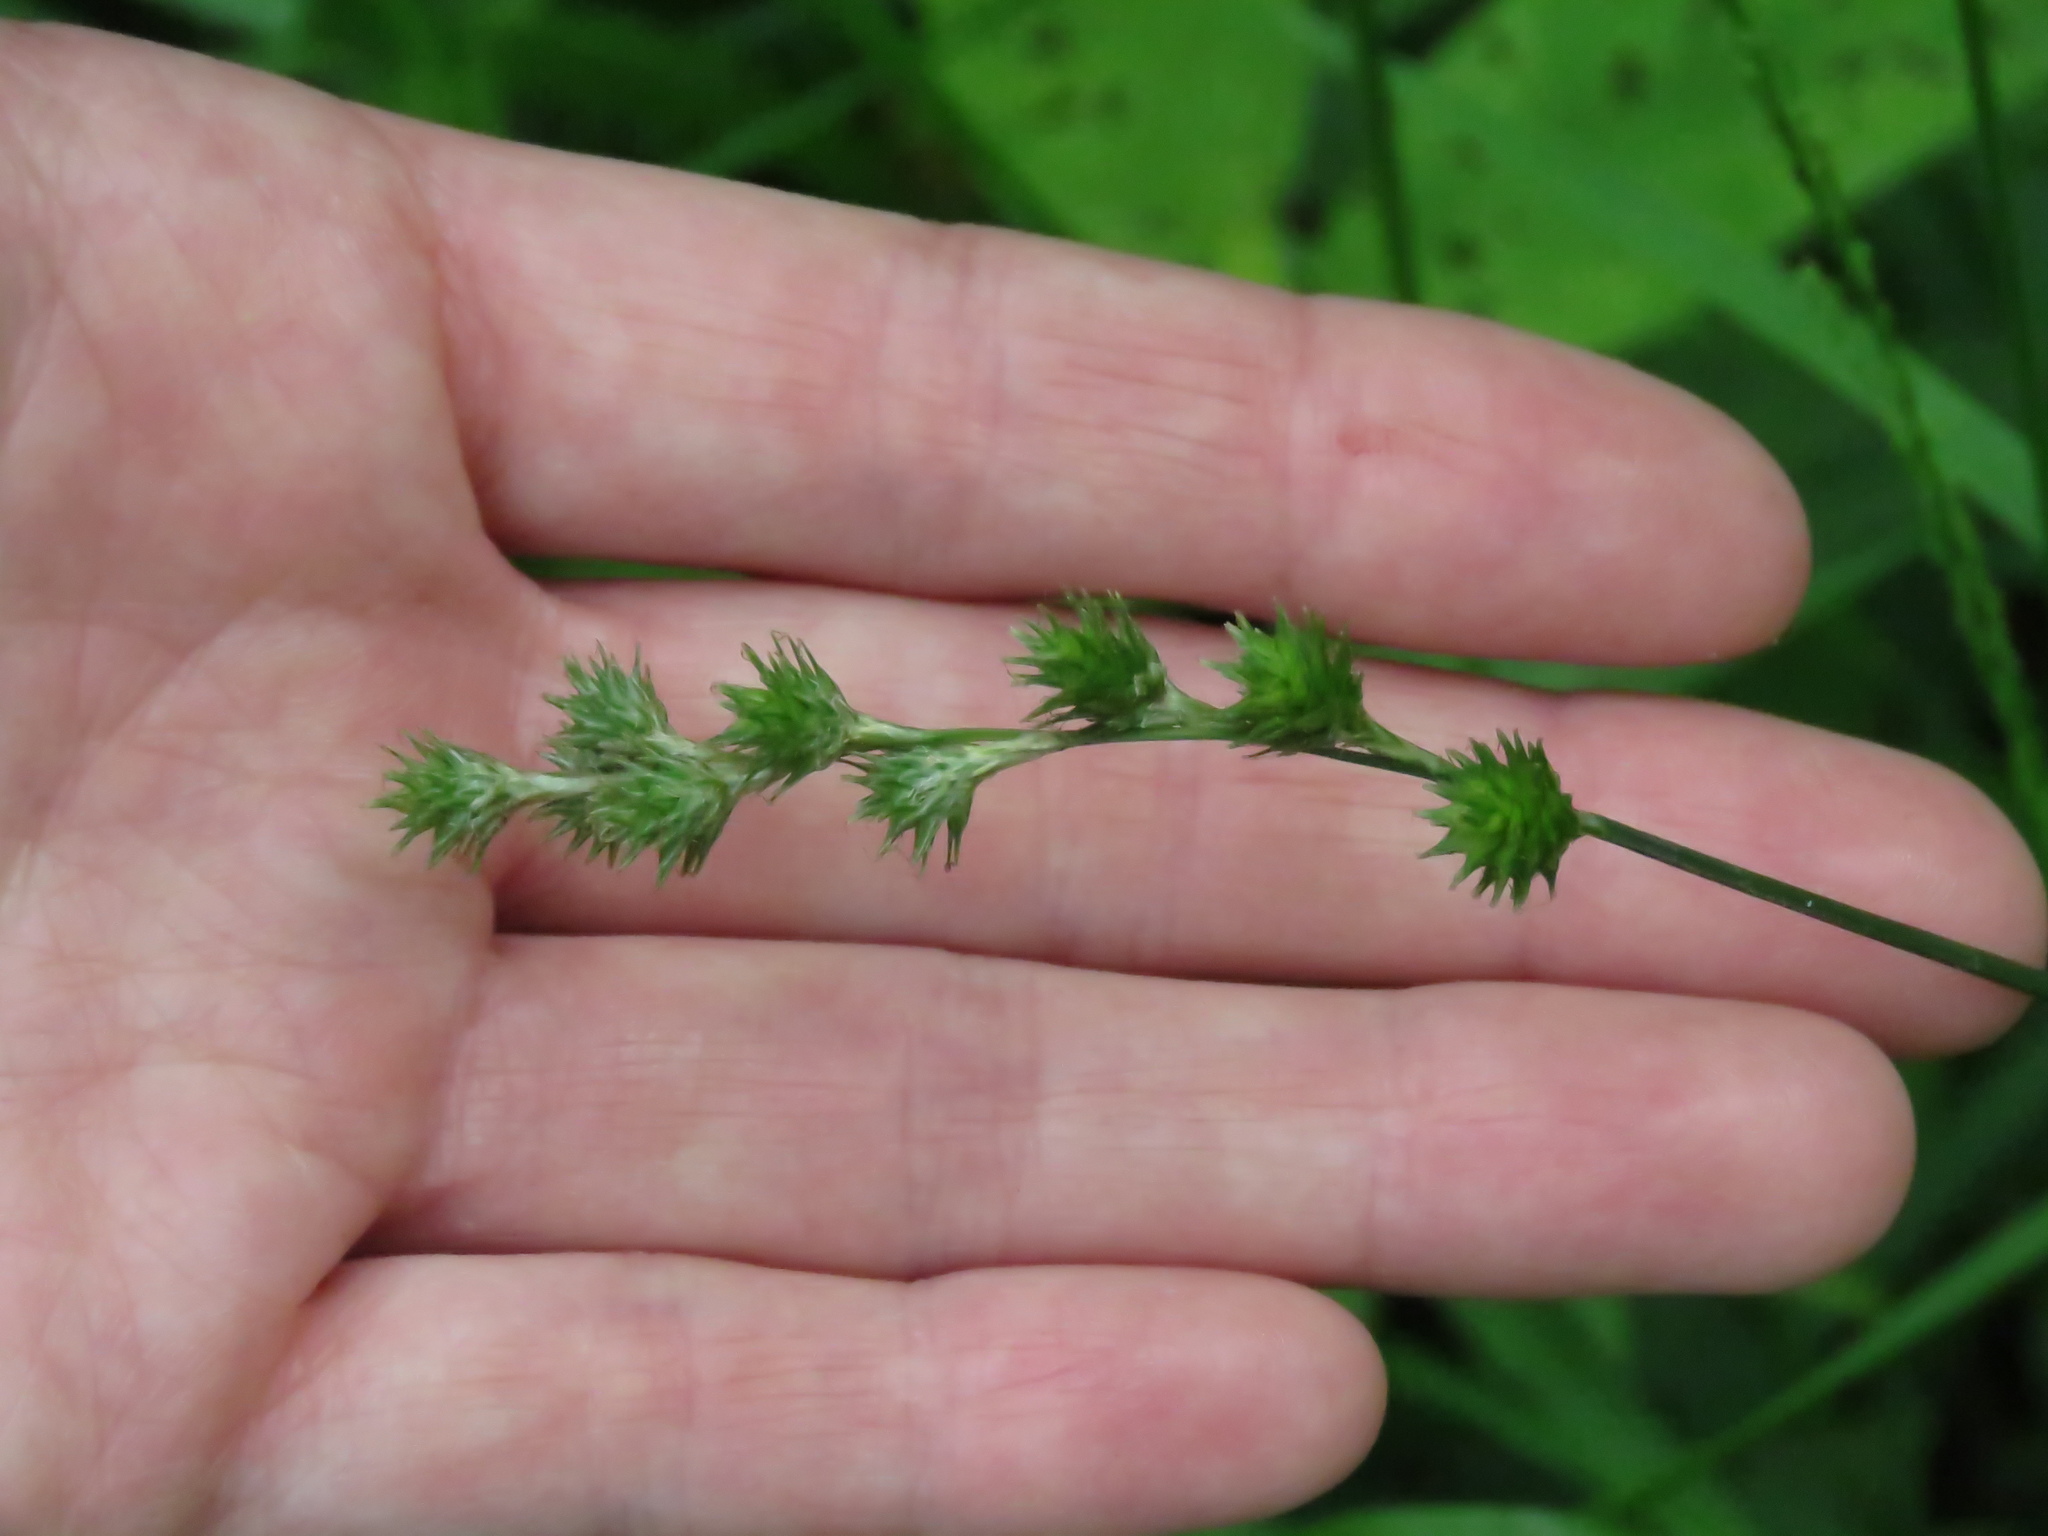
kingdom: Plantae
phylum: Tracheophyta
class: Liliopsida
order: Poales
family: Cyperaceae
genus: Carex
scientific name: Carex sparganioides
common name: Burreed sedge
